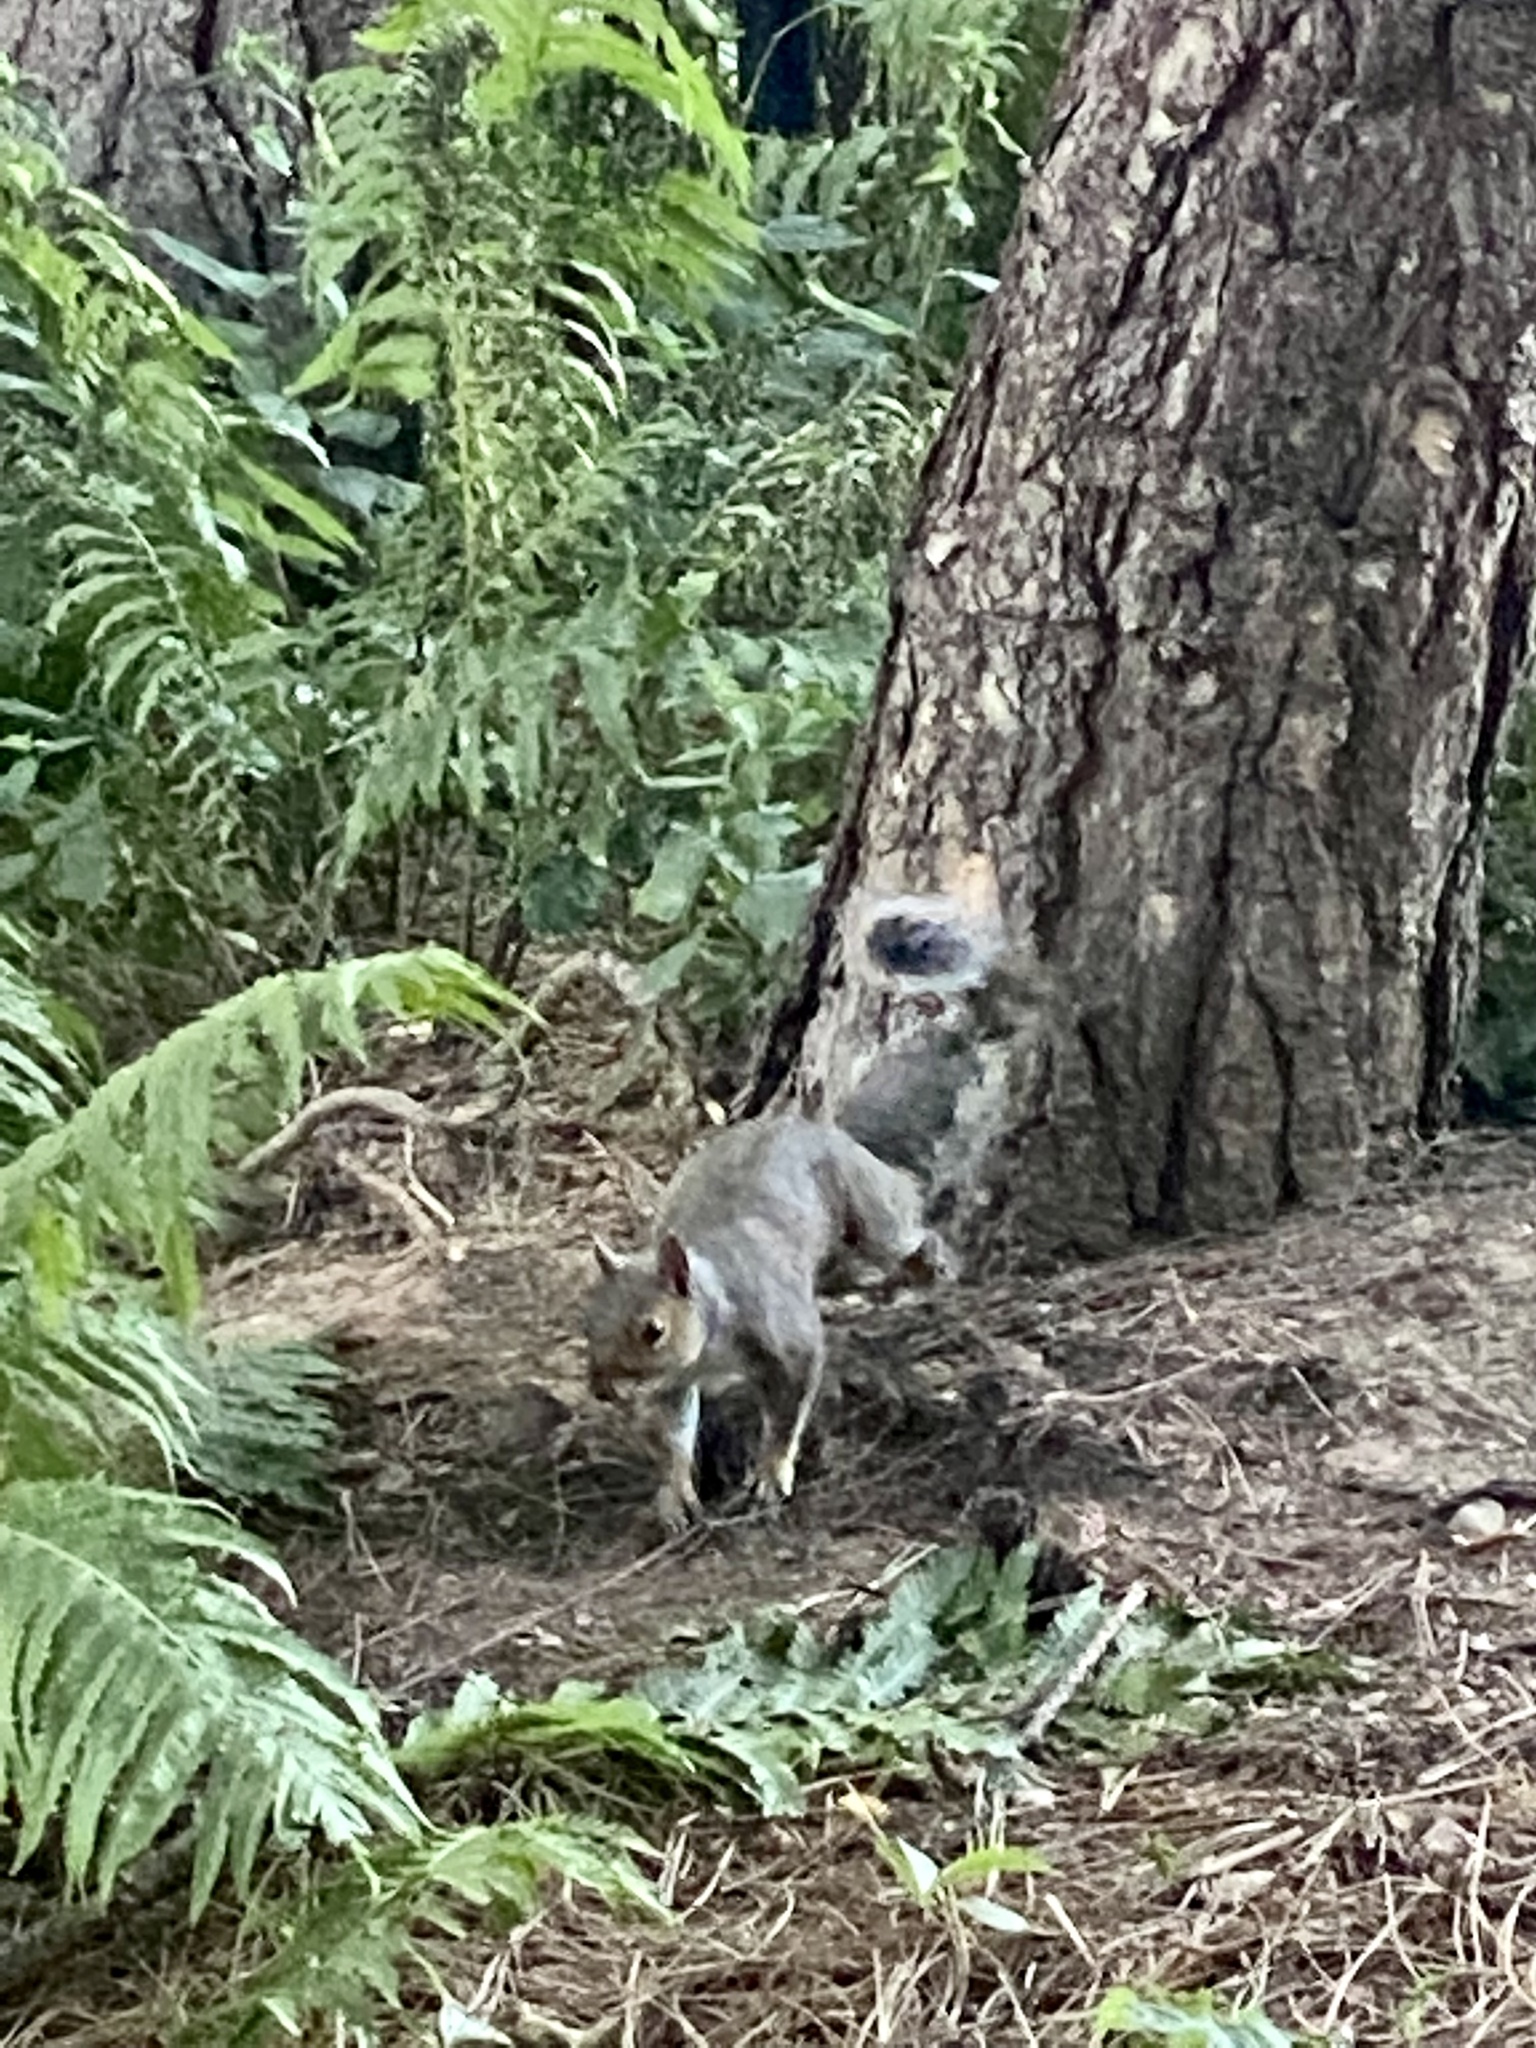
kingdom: Animalia
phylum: Chordata
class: Mammalia
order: Rodentia
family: Sciuridae
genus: Sciurus
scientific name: Sciurus carolinensis
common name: Eastern gray squirrel
